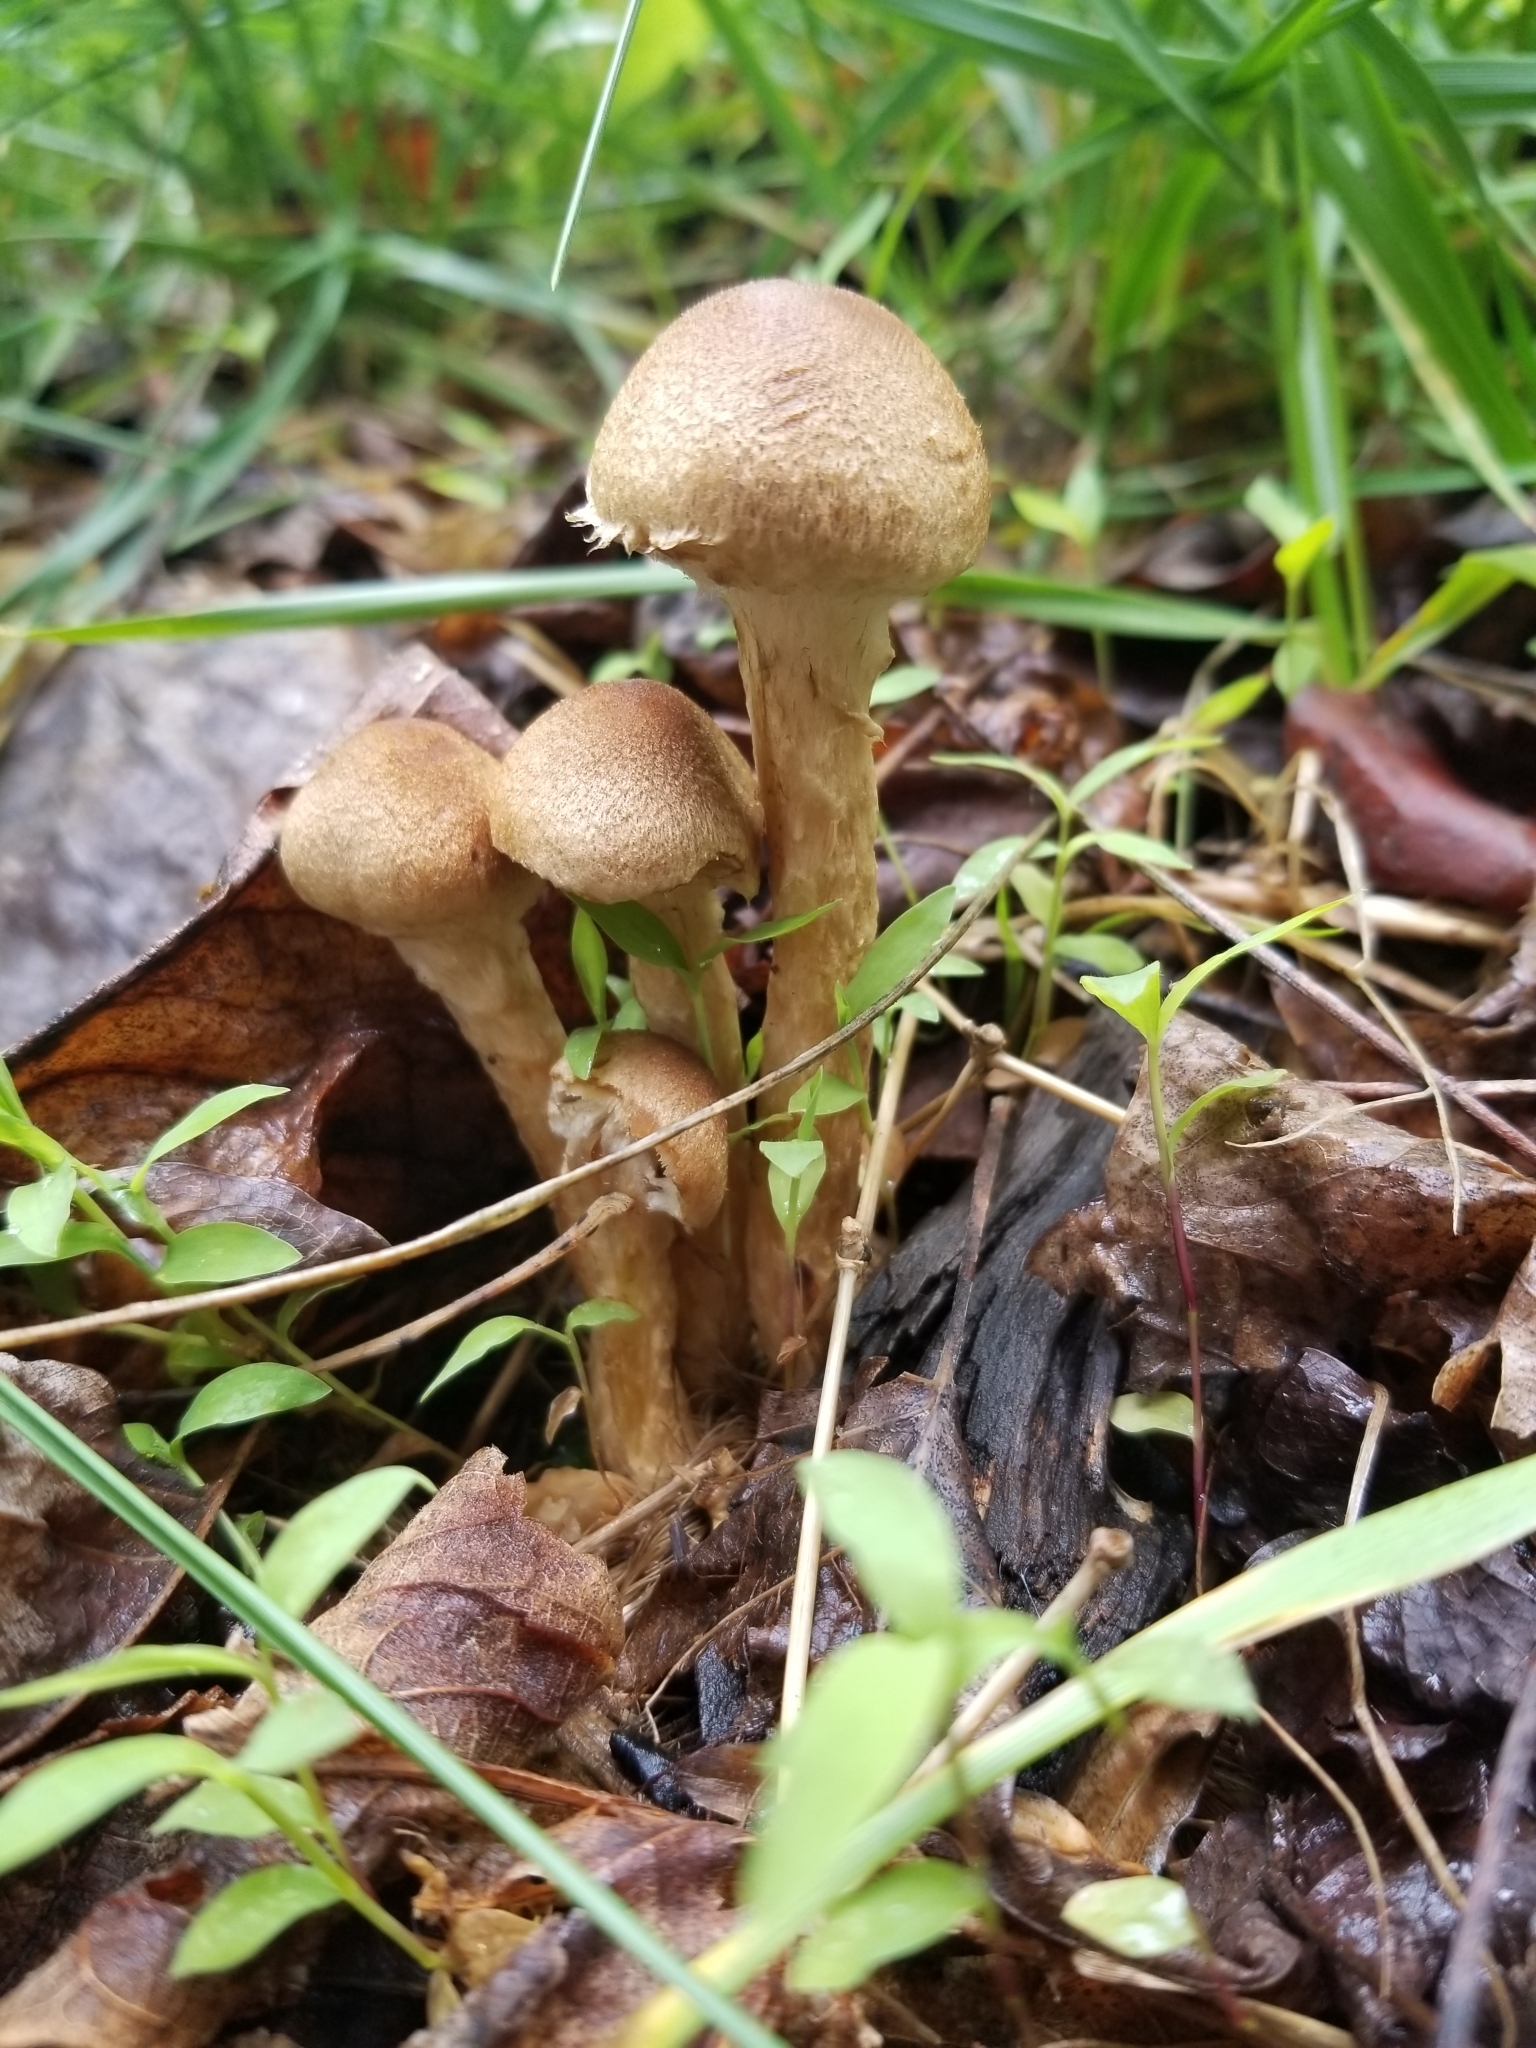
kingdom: Fungi
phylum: Basidiomycota
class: Agaricomycetes
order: Agaricales
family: Psathyrellaceae
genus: Lacrymaria
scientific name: Lacrymaria lacrymabunda
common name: Weeping widow
